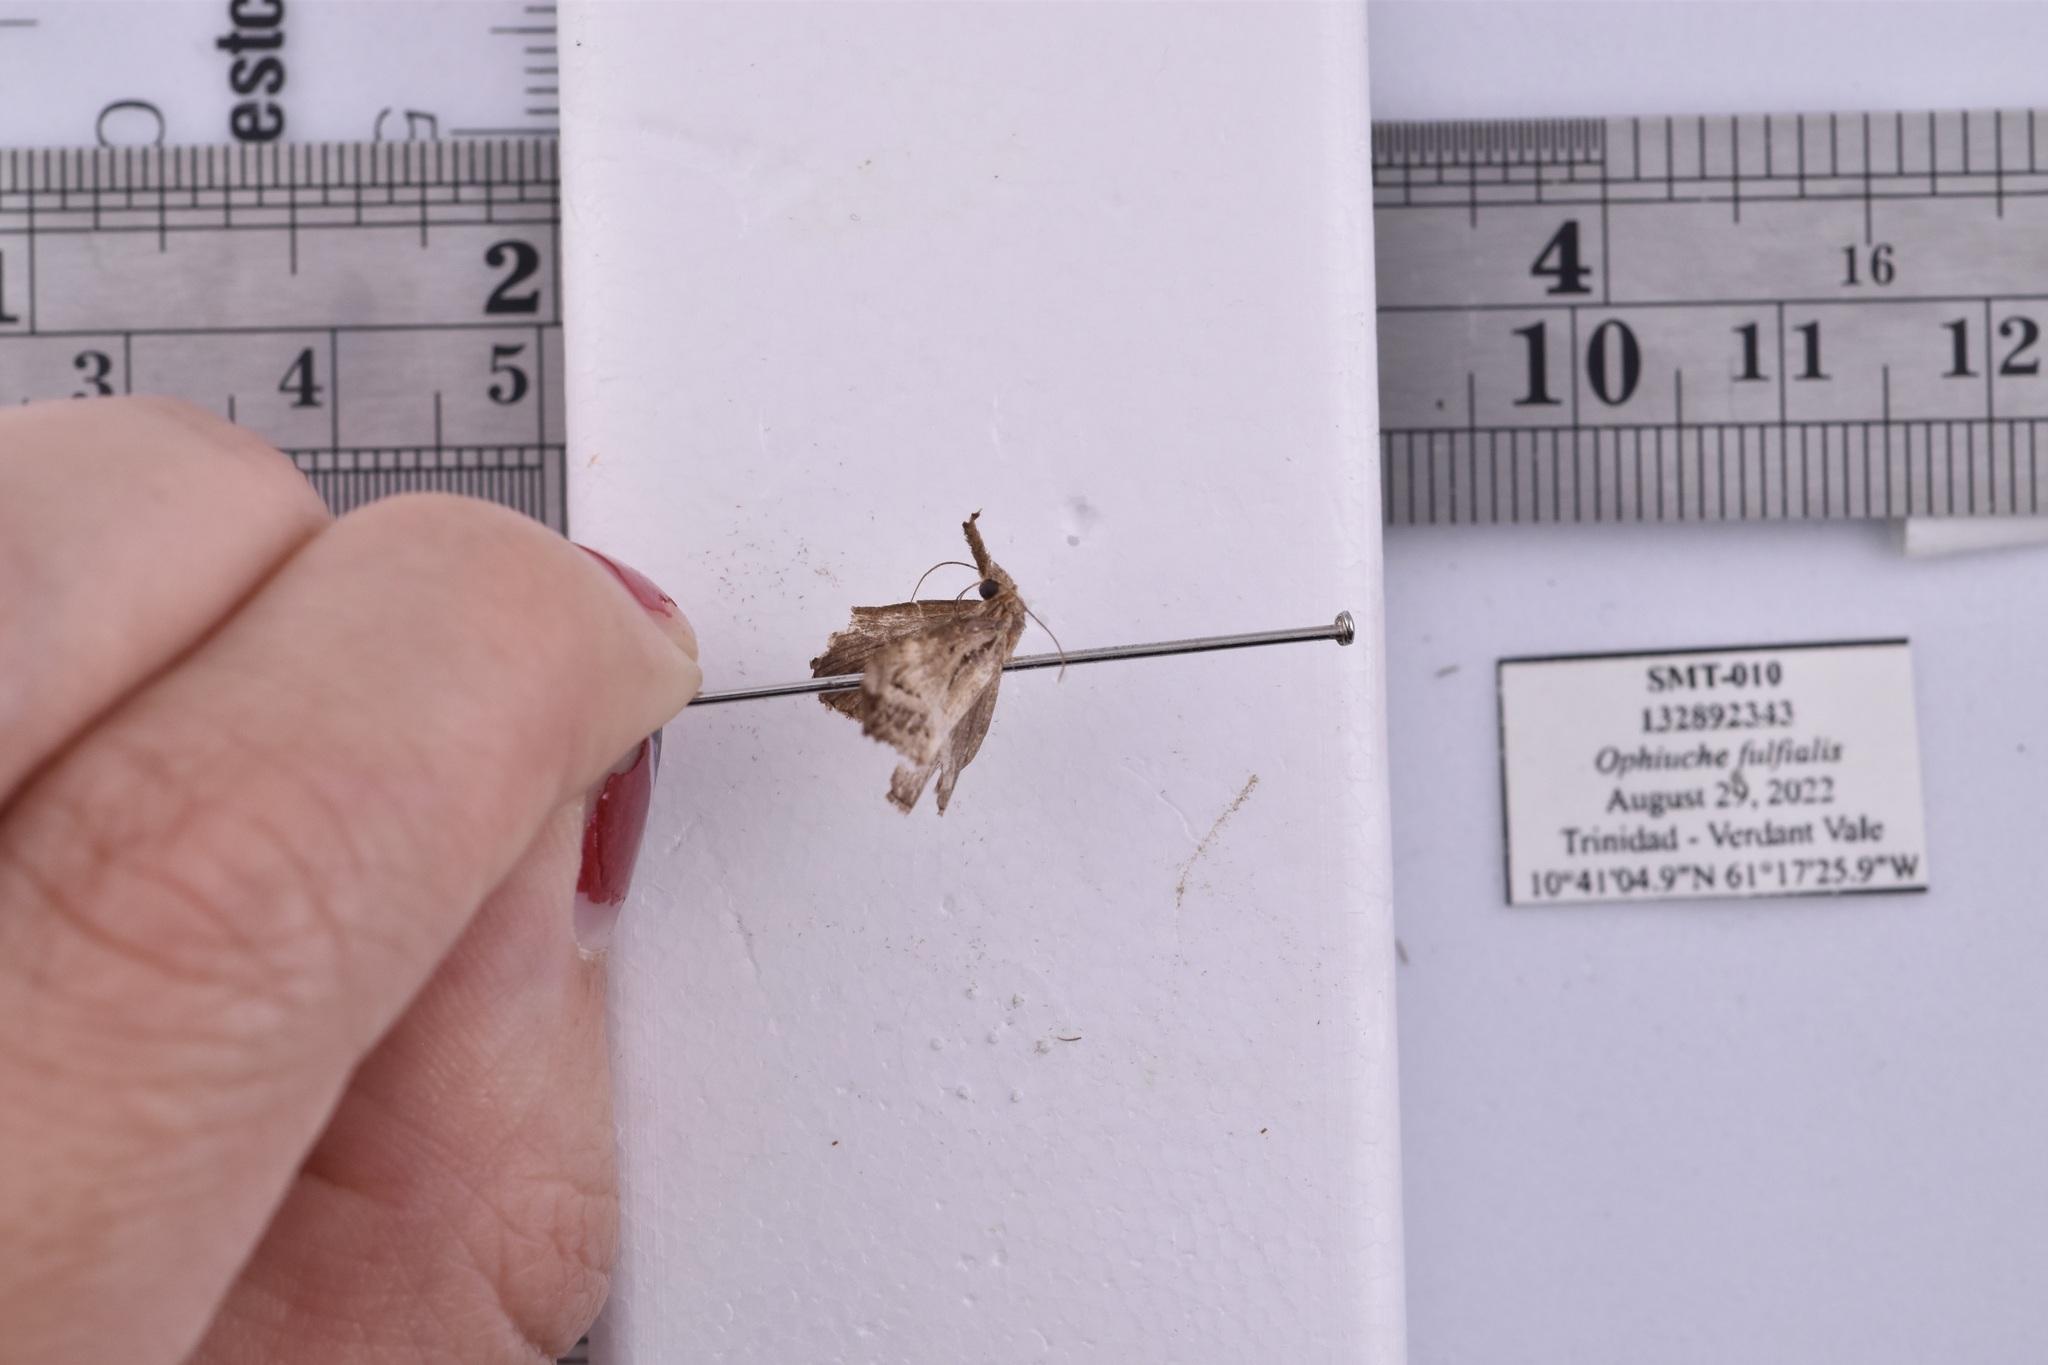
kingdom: Animalia
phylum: Arthropoda
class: Insecta
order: Lepidoptera
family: Erebidae
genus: Hypena
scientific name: Hypena fufialis
